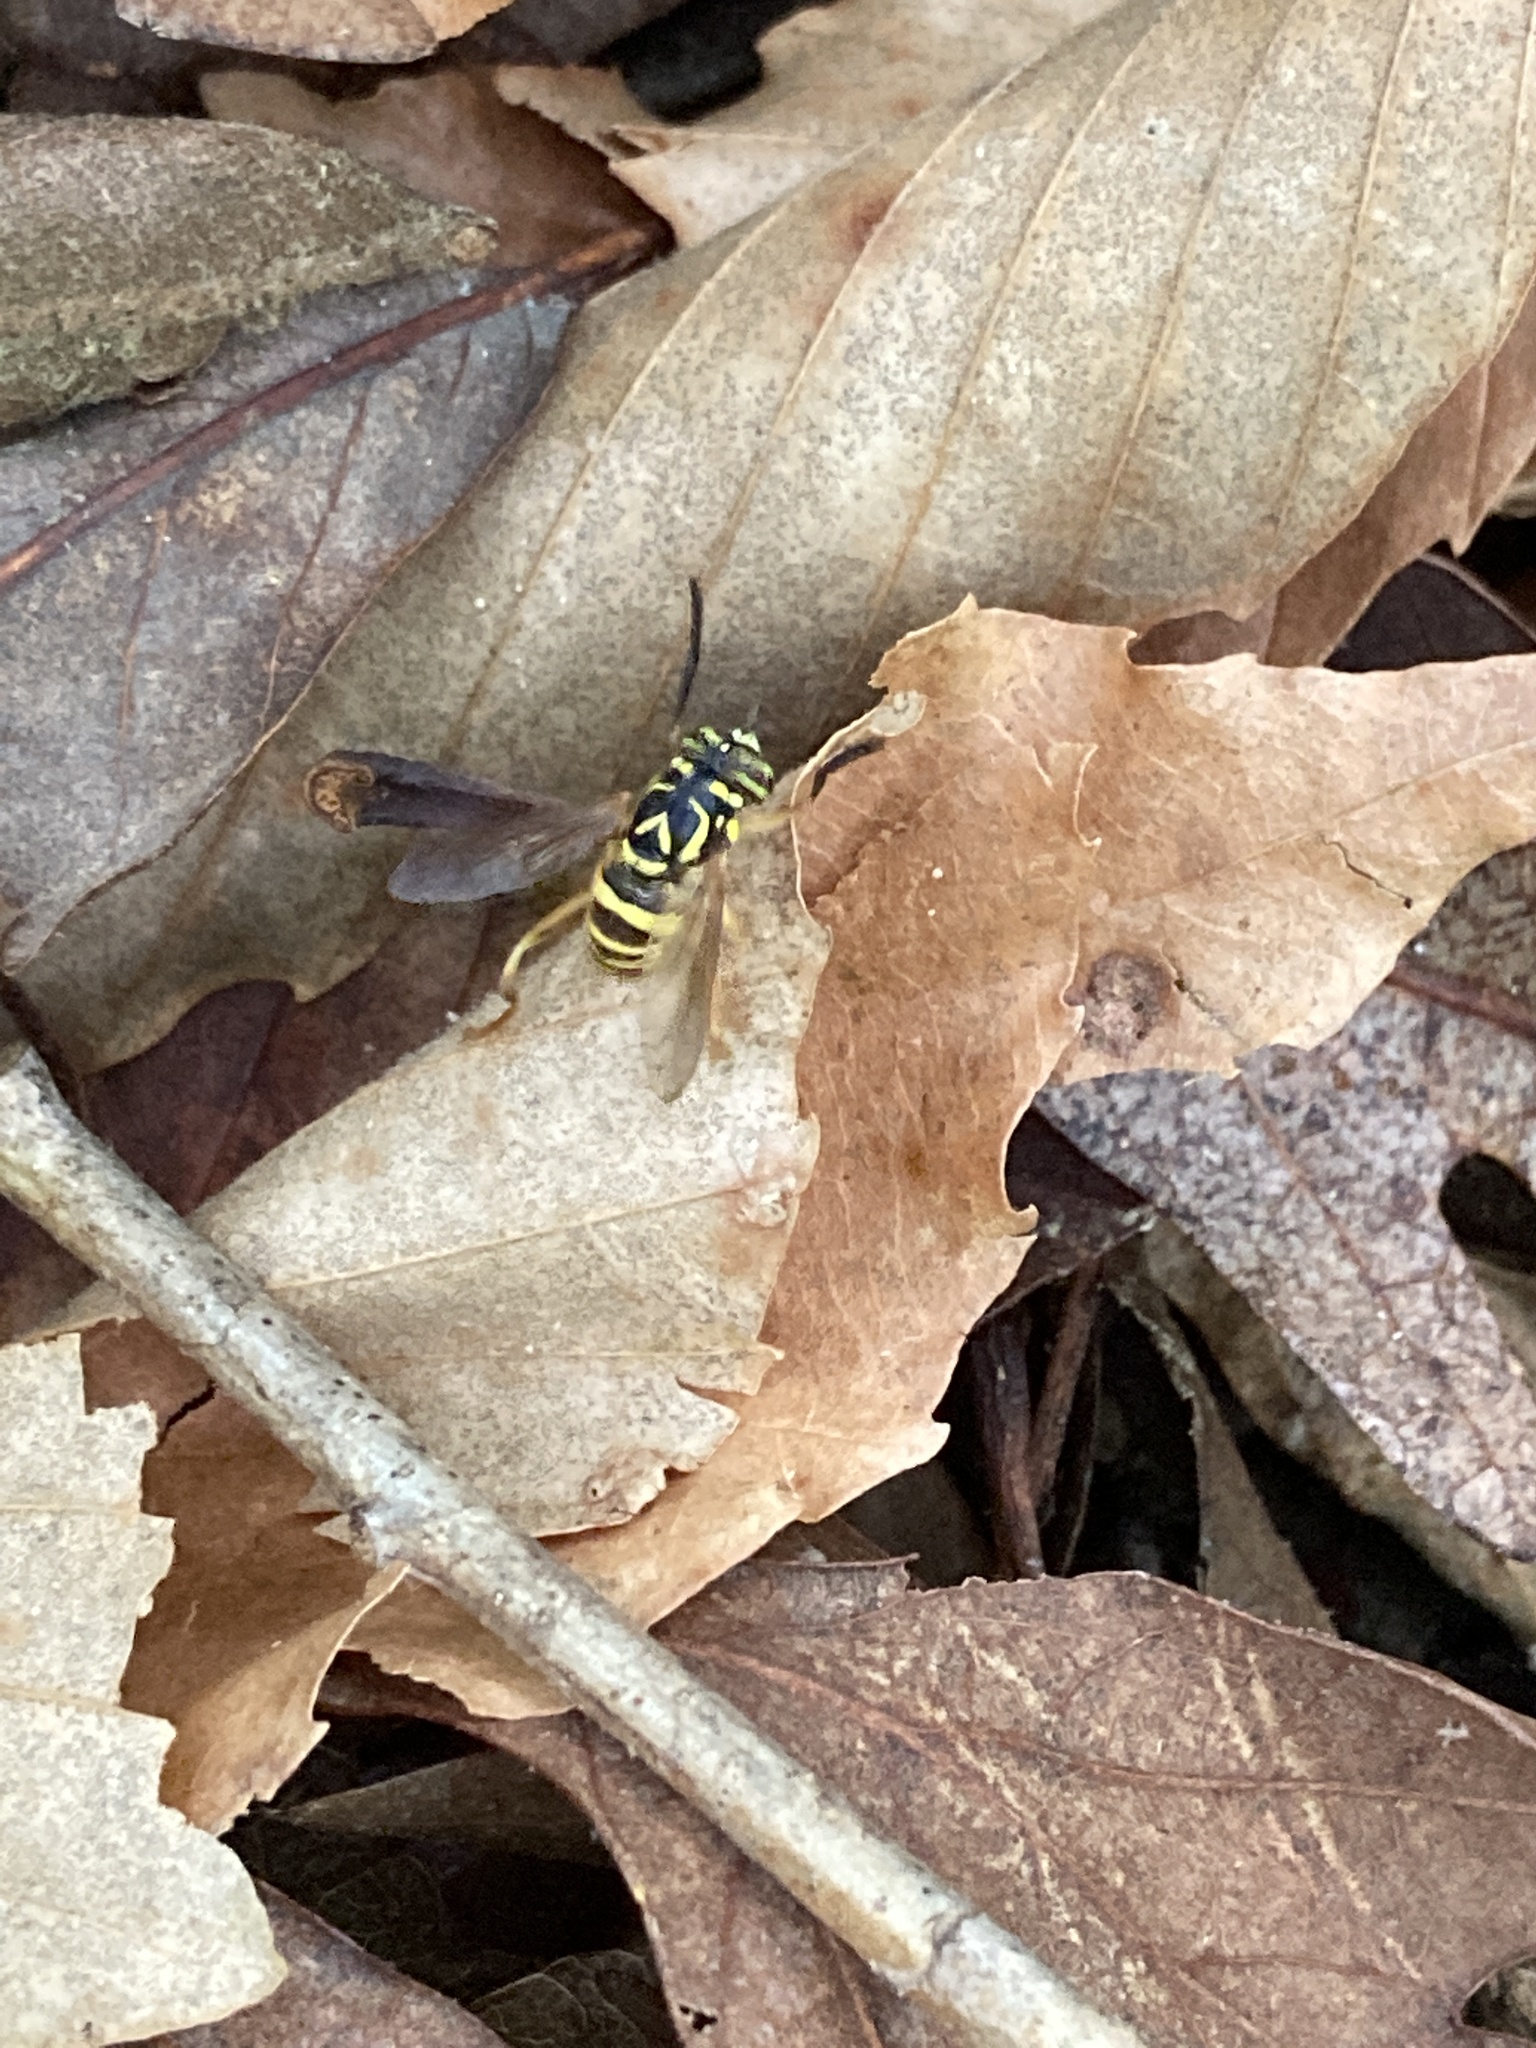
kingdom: Animalia
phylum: Arthropoda
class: Insecta
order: Diptera
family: Syrphidae
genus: Spilomyia
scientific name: Spilomyia longicornis
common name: Eastern hornet fly
